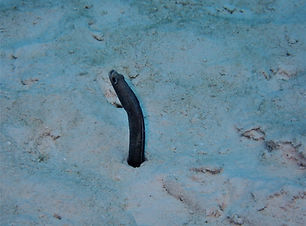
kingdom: Animalia
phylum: Chordata
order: Anguilliformes
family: Congridae
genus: Heteroconger
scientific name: Heteroconger longissimus
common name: Garden eel
